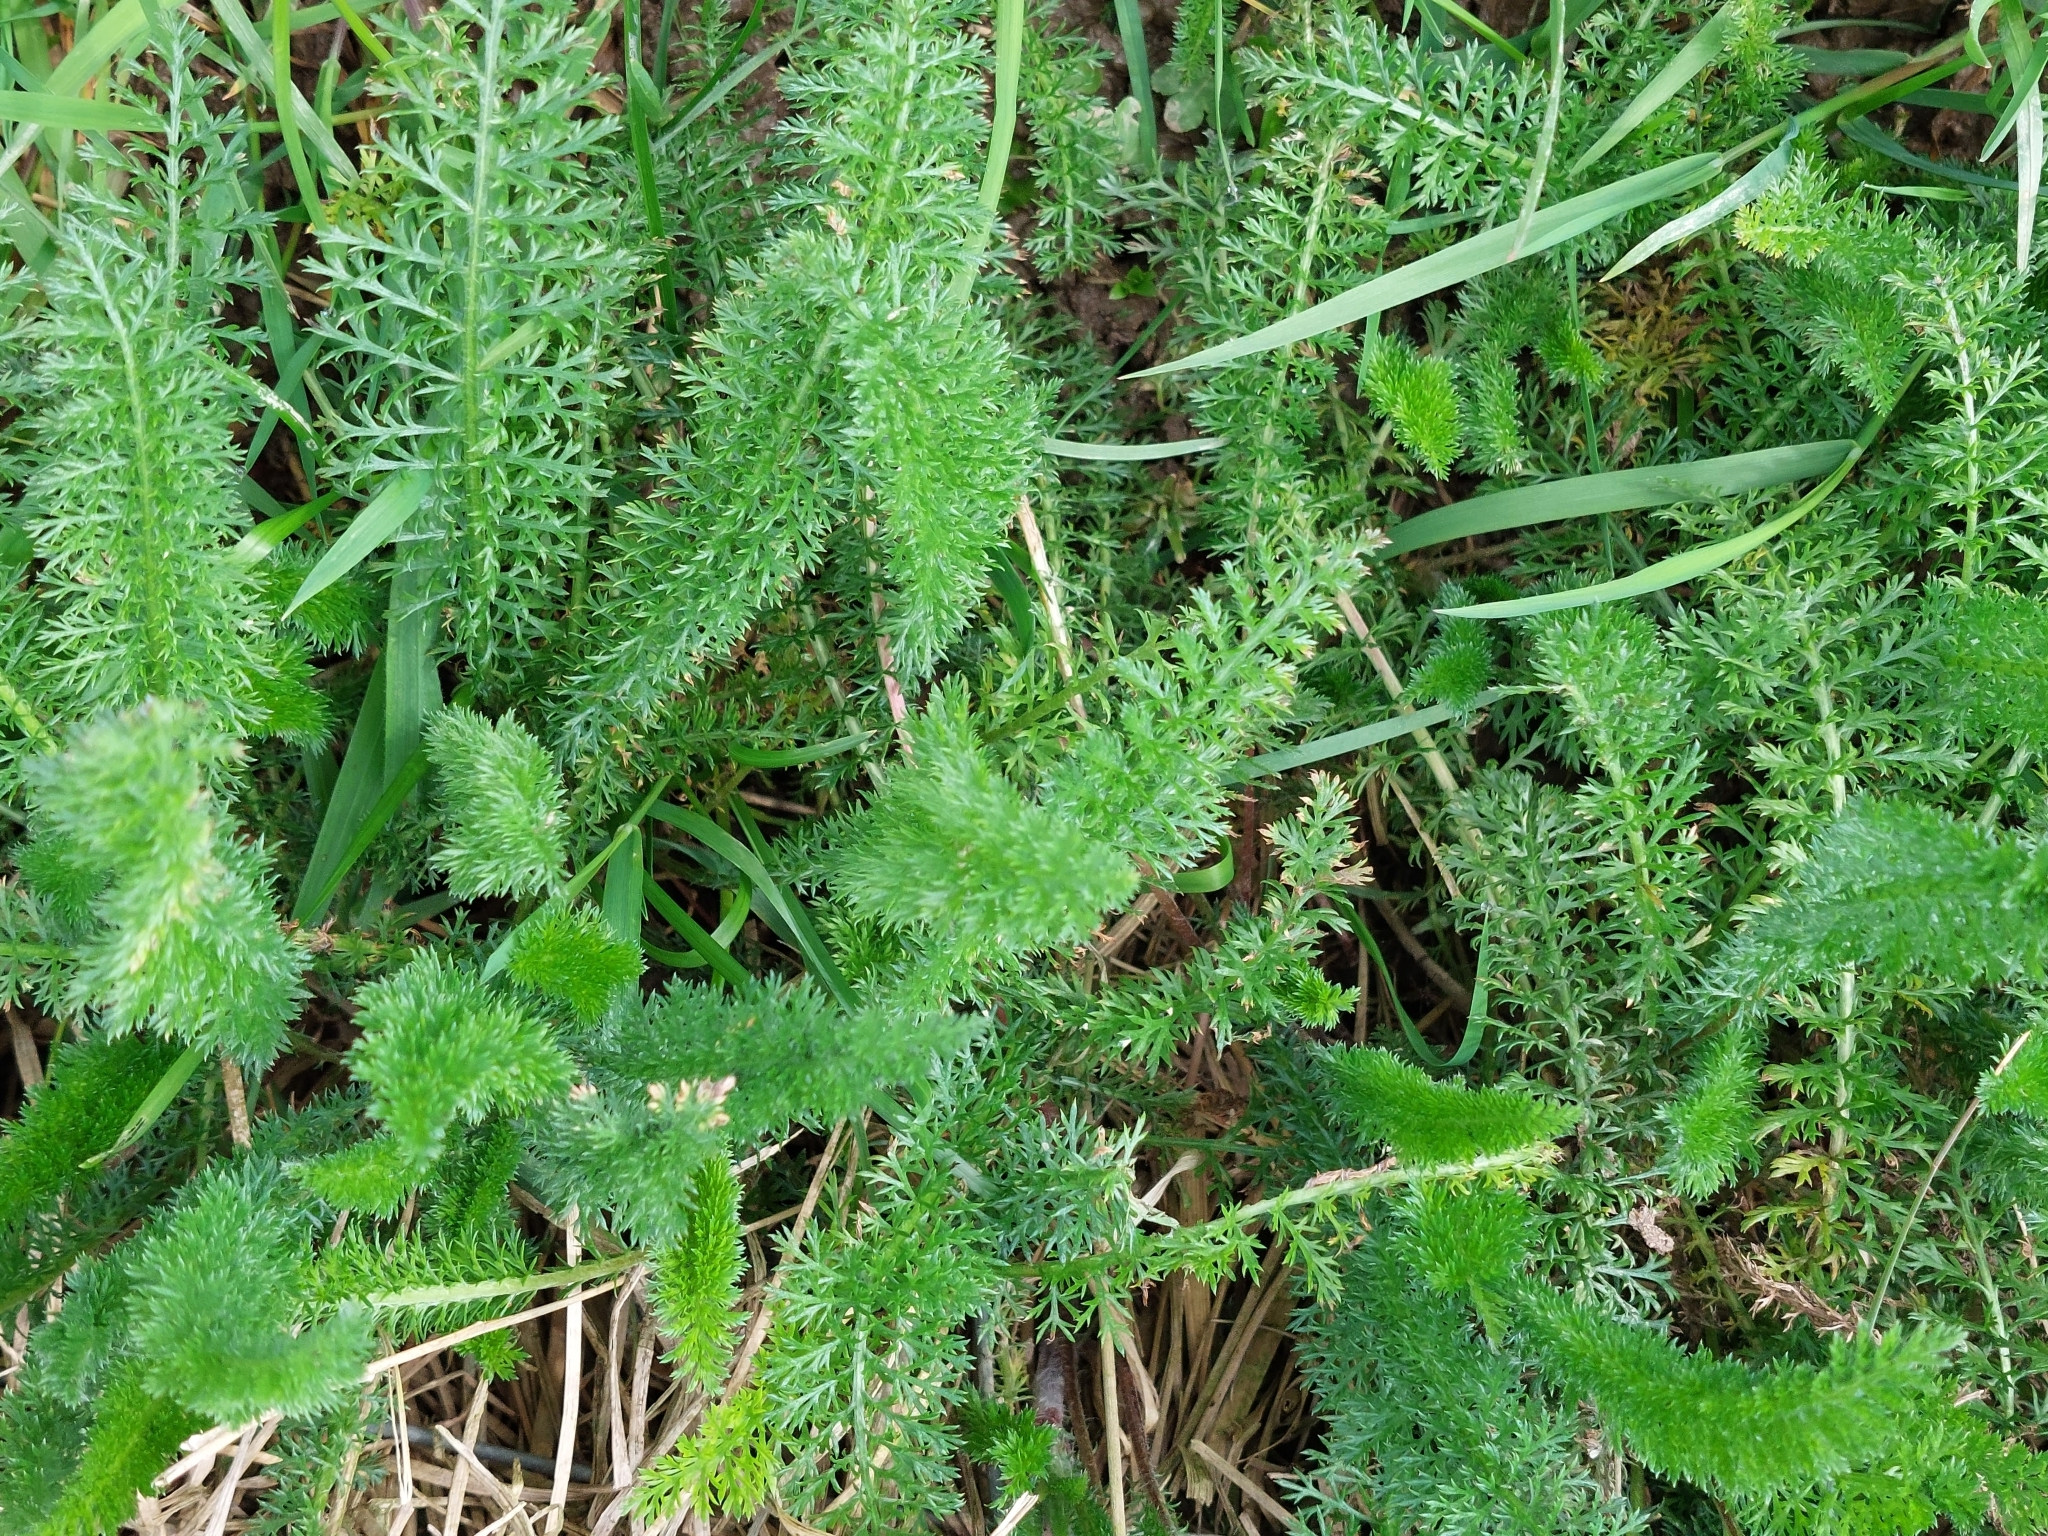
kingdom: Plantae
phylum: Tracheophyta
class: Magnoliopsida
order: Asterales
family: Asteraceae
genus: Achillea
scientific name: Achillea millefolium
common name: Yarrow
